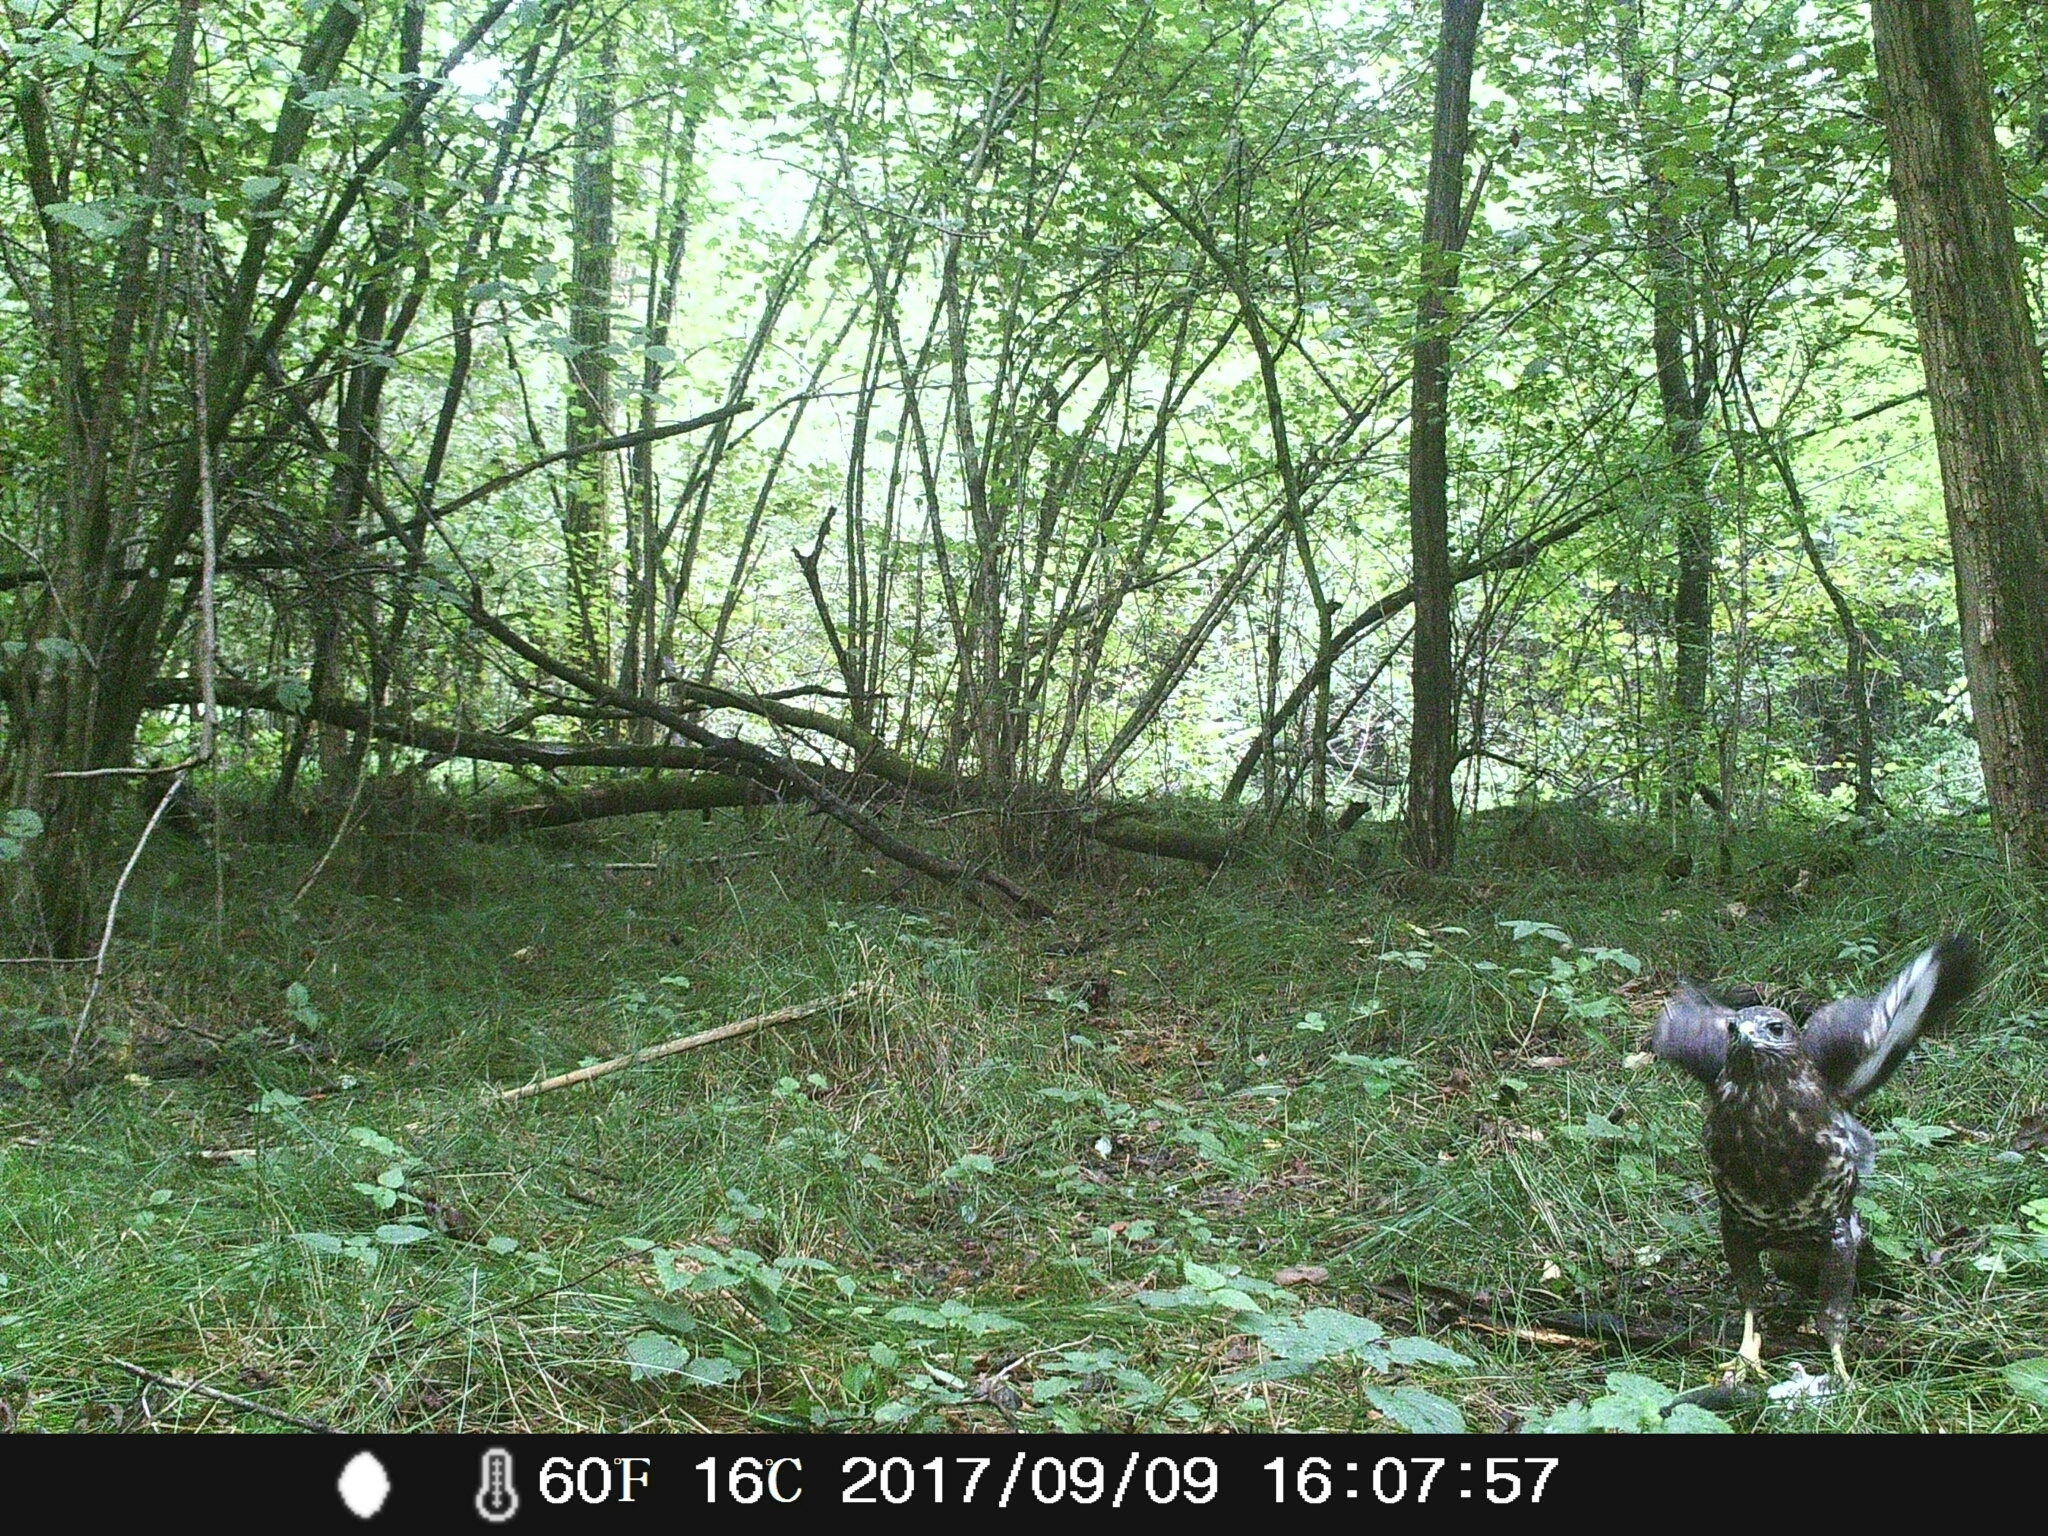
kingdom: Animalia
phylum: Chordata
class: Aves
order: Accipitriformes
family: Accipitridae
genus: Buteo
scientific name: Buteo buteo
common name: Common buzzard
